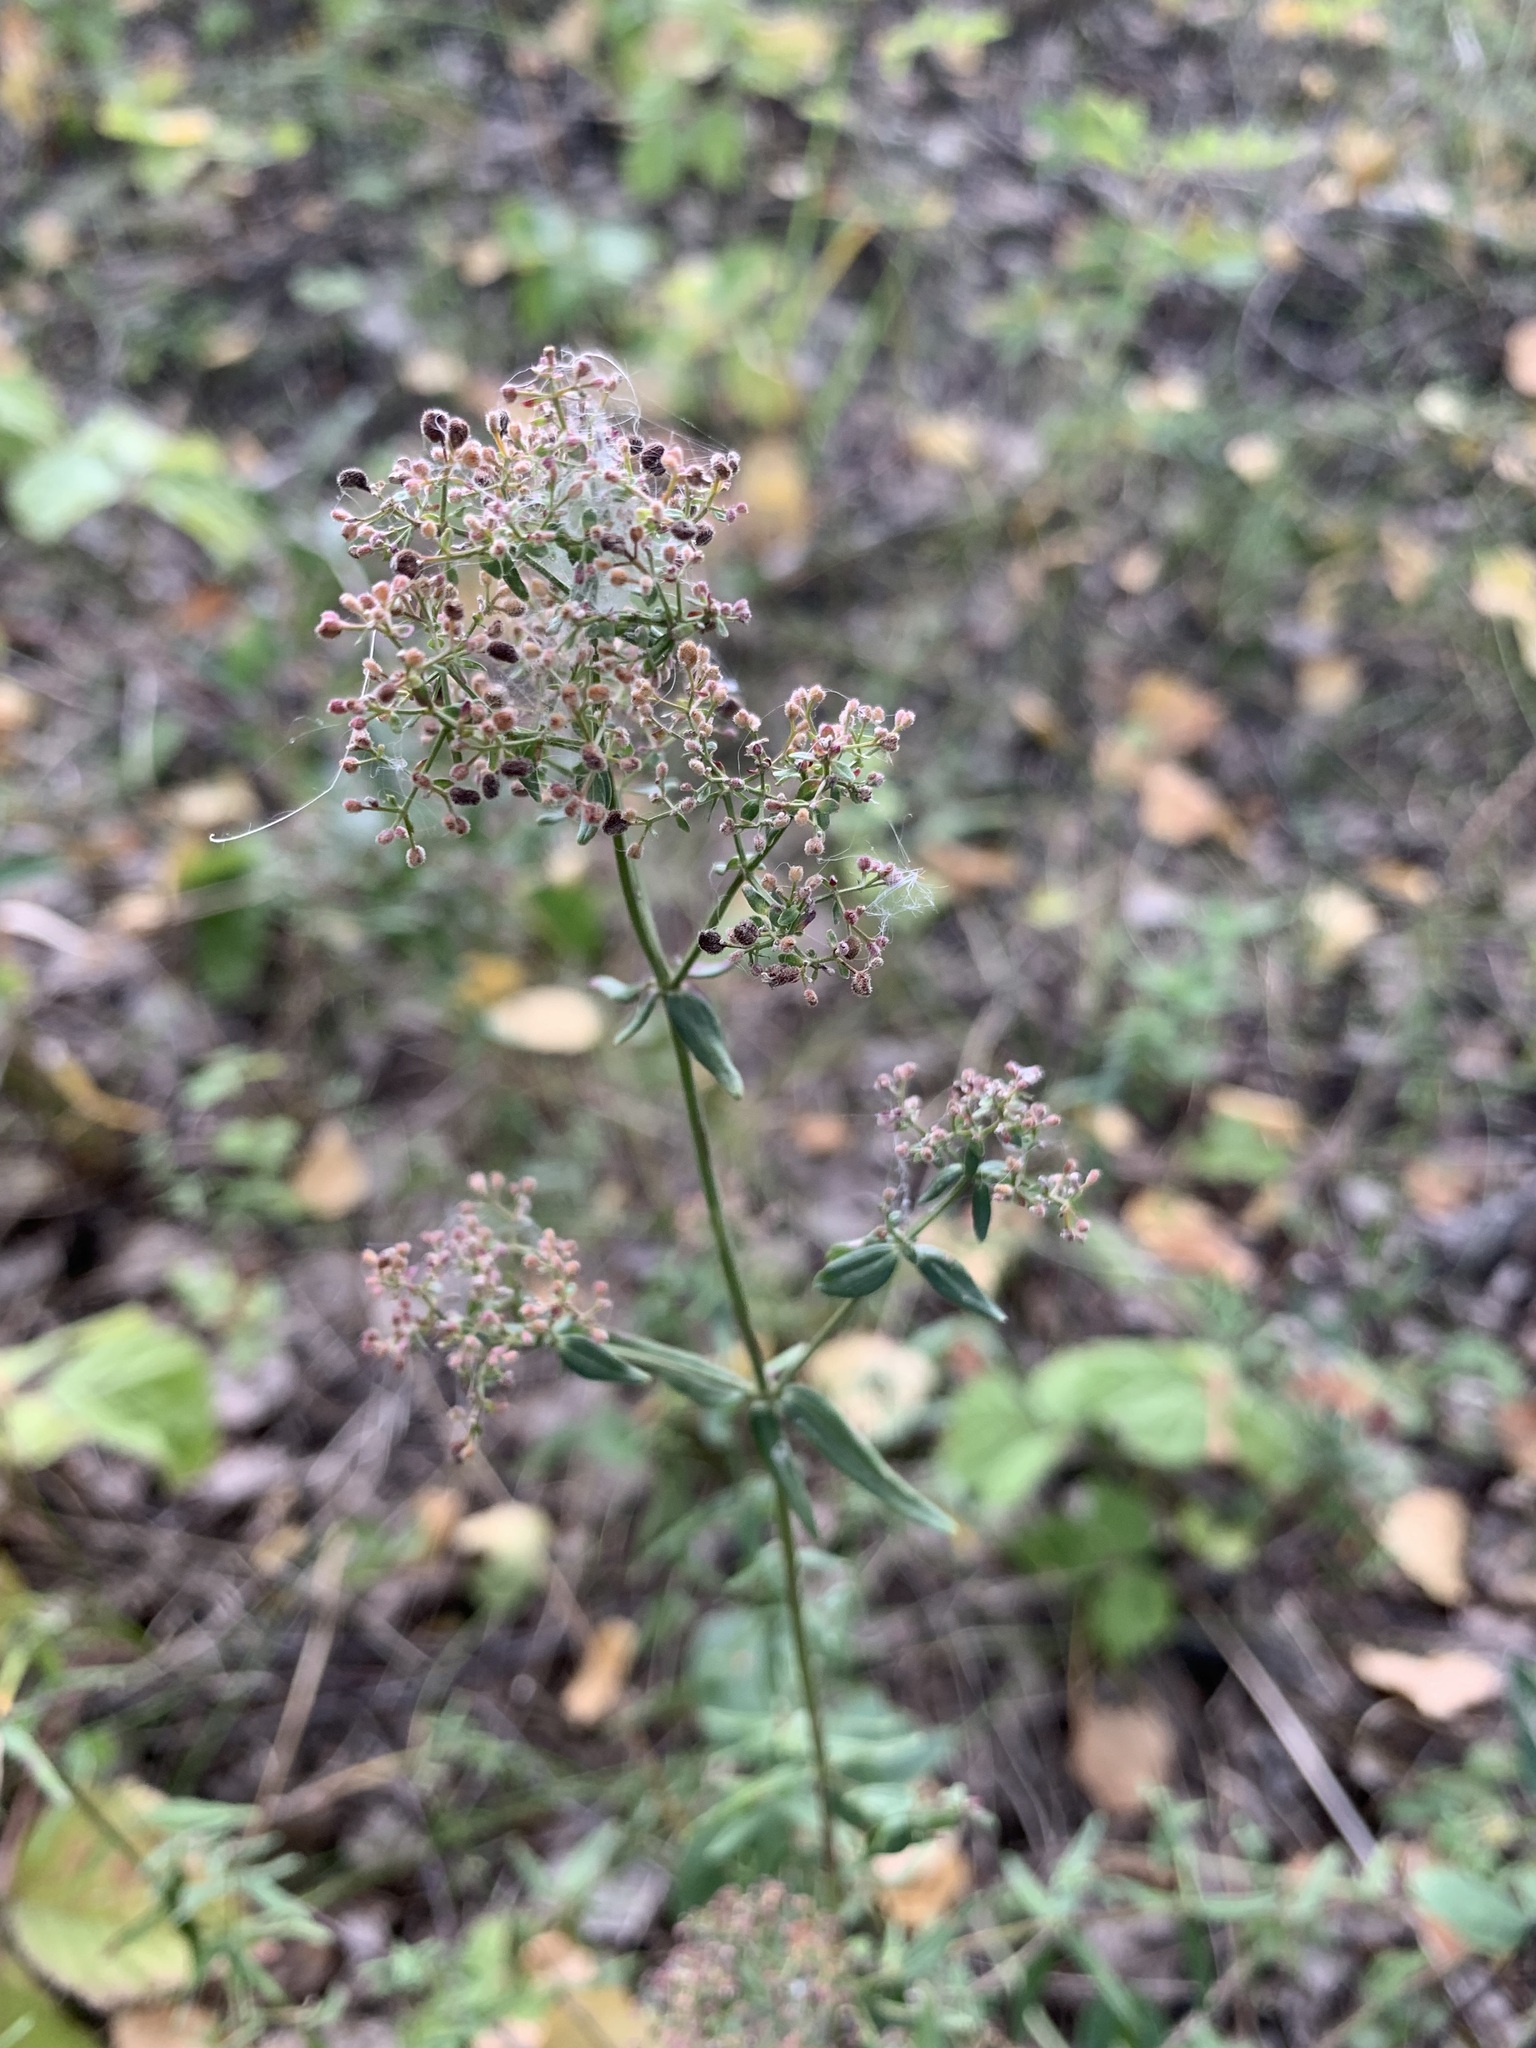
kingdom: Plantae
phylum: Tracheophyta
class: Magnoliopsida
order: Gentianales
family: Rubiaceae
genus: Galium
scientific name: Galium boreale
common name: Northern bedstraw
